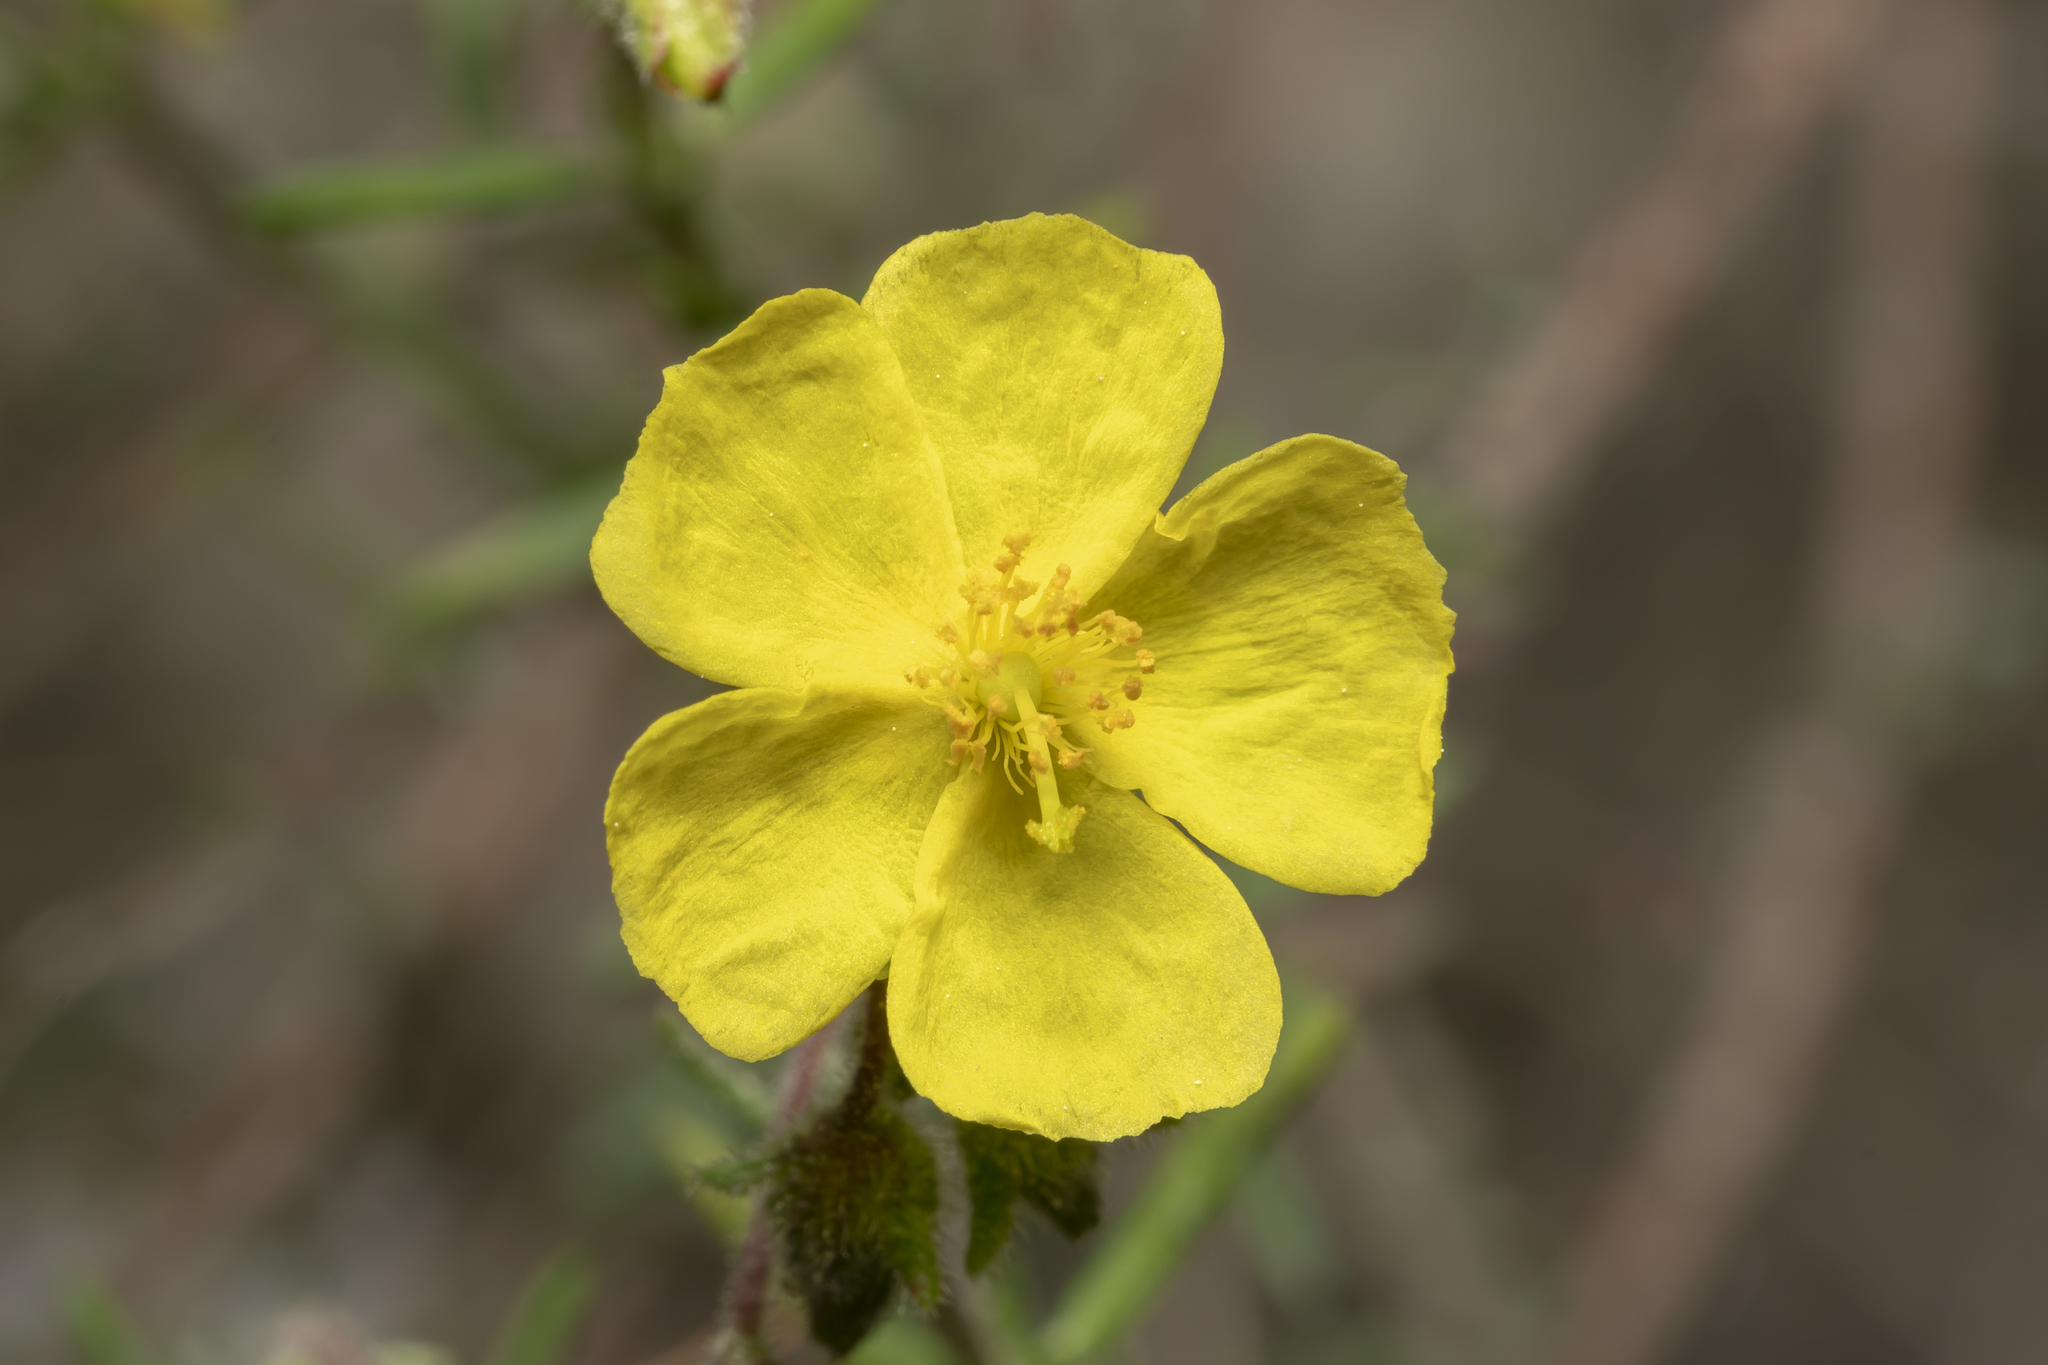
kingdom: Plantae
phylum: Tracheophyta
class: Magnoliopsida
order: Malvales
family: Cistaceae
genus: Fumana
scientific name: Fumana laevis
